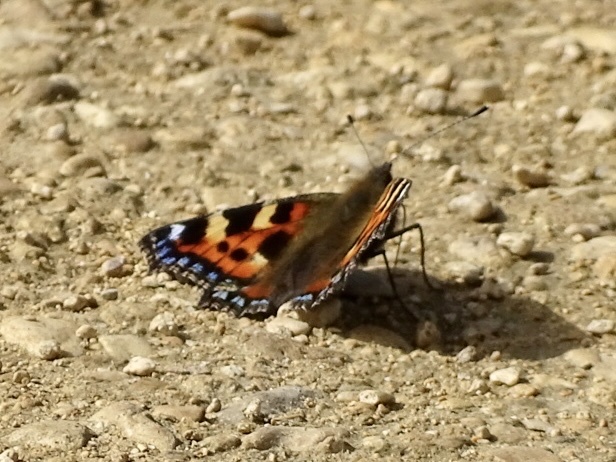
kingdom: Animalia
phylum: Arthropoda
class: Insecta
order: Lepidoptera
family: Nymphalidae
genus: Aglais
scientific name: Aglais urticae
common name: Small tortoiseshell
